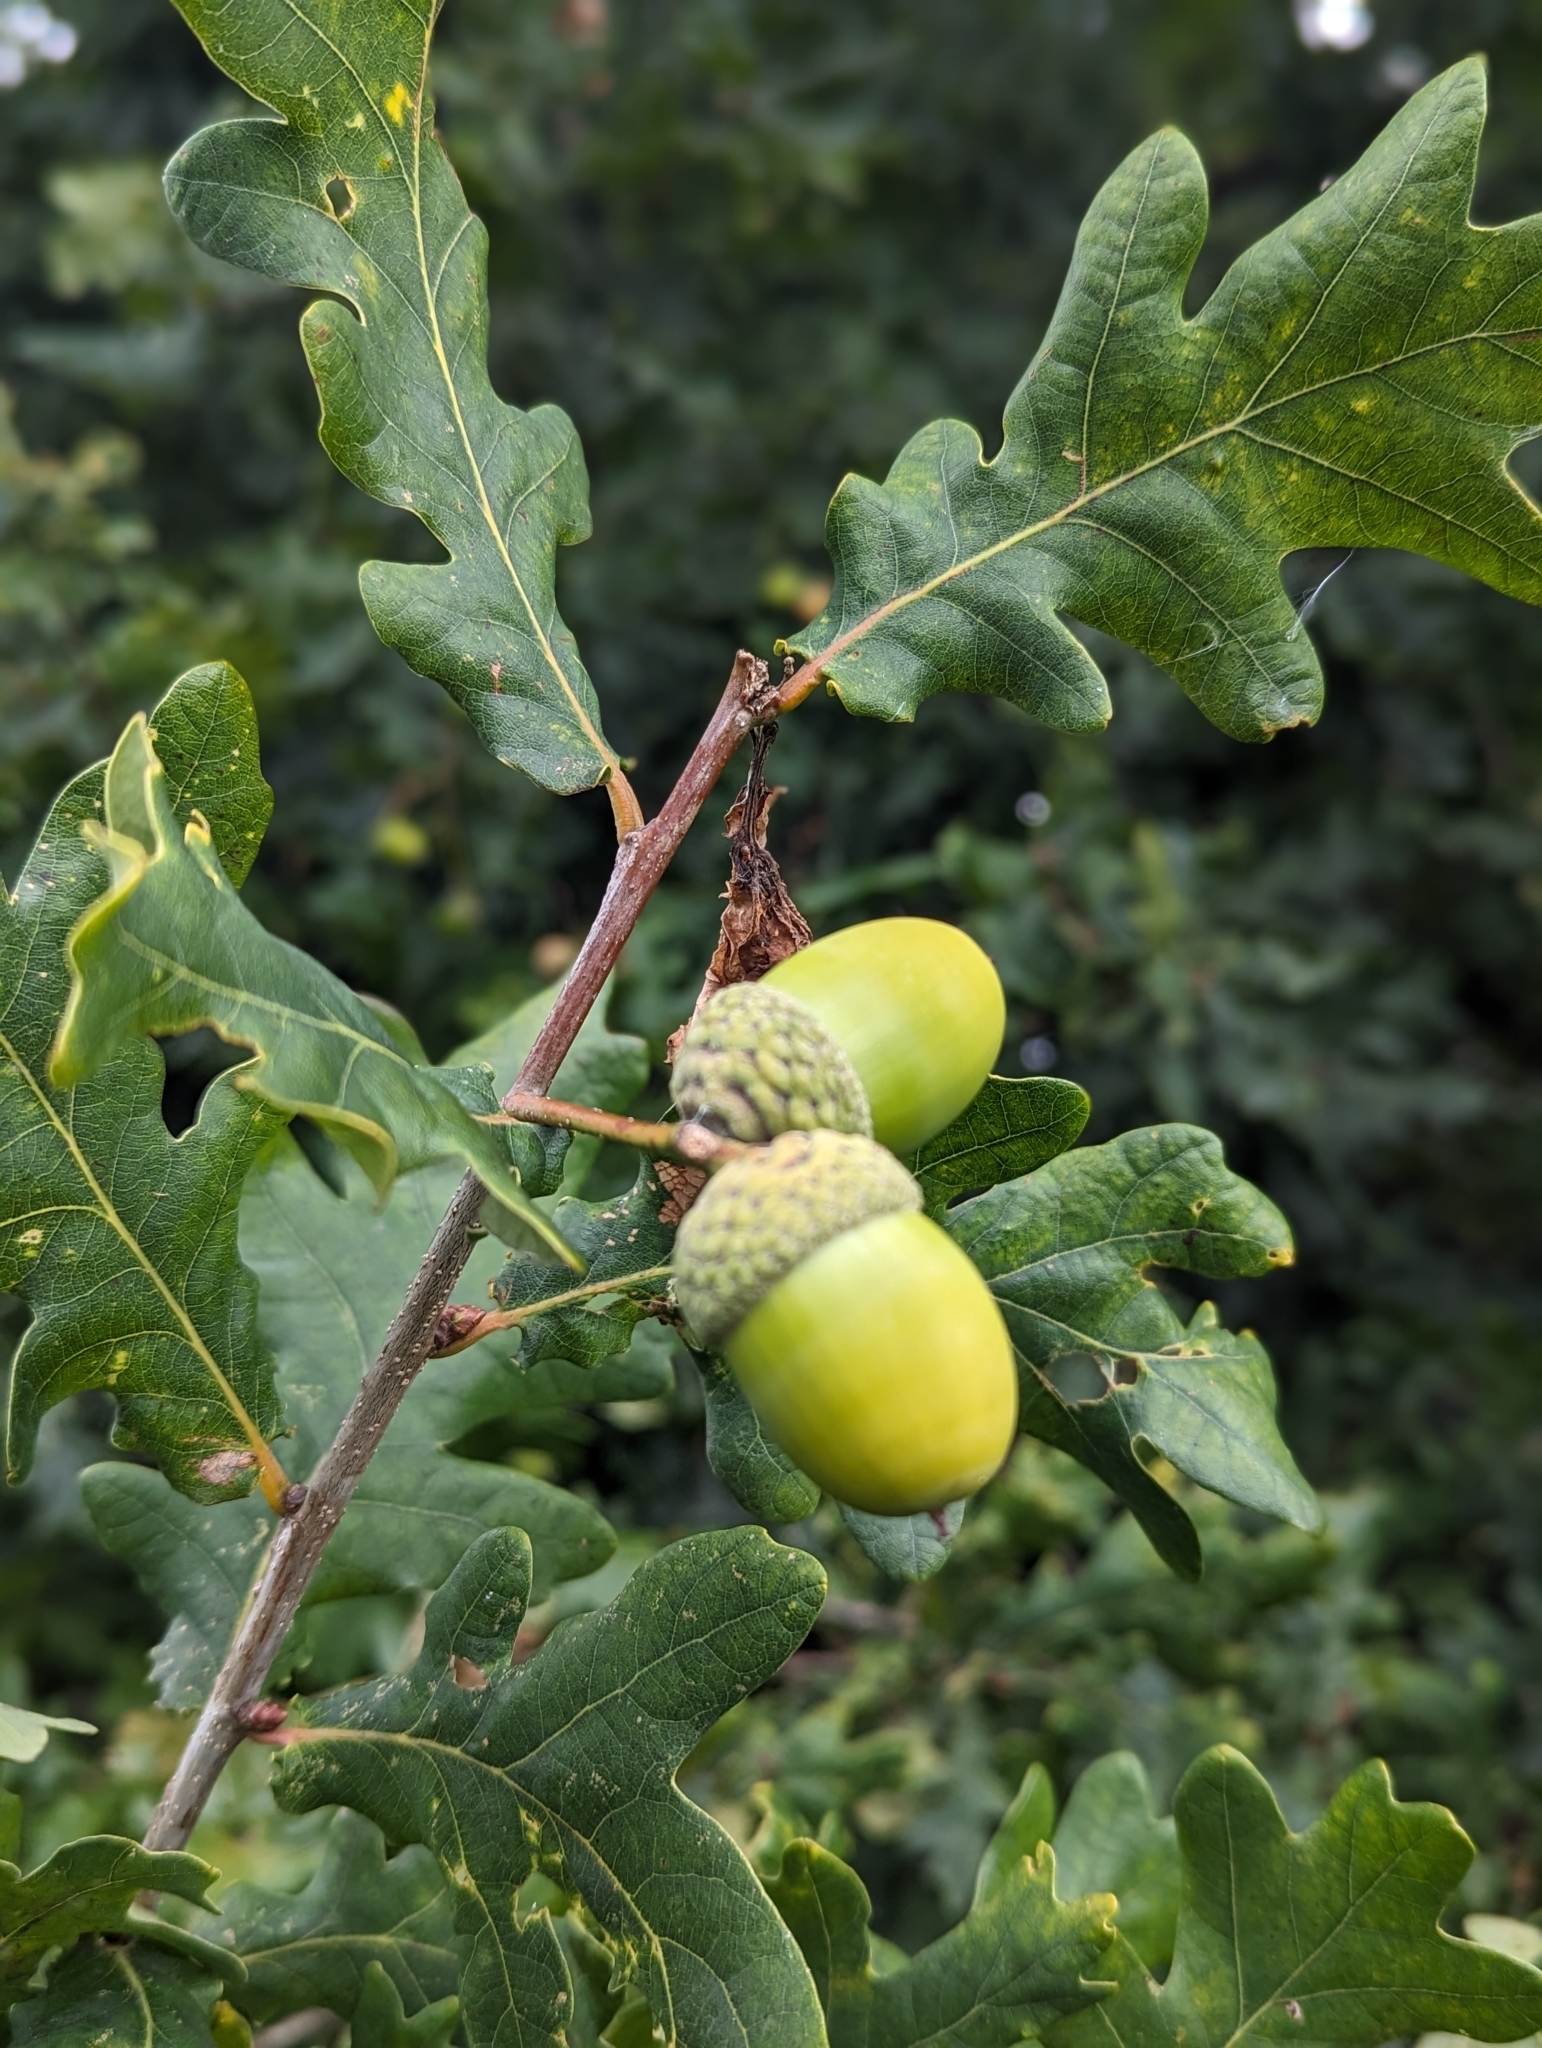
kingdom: Plantae
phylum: Tracheophyta
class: Magnoliopsida
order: Fagales
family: Fagaceae
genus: Quercus
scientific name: Quercus robur
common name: Pedunculate oak
